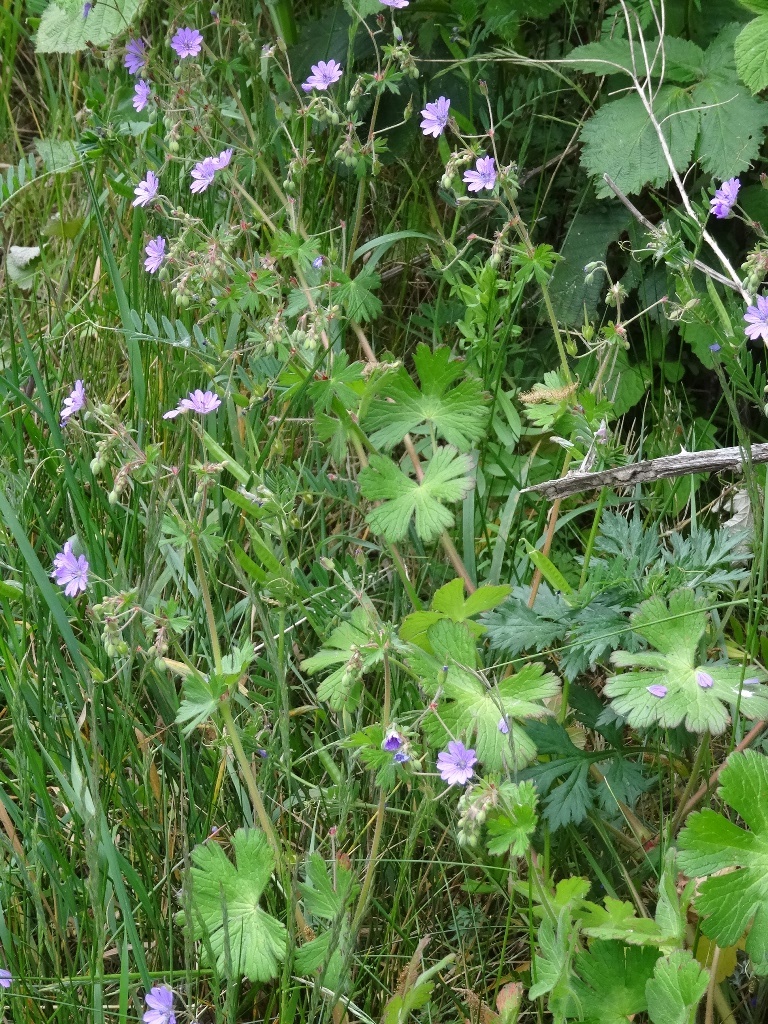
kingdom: Plantae
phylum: Tracheophyta
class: Magnoliopsida
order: Geraniales
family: Geraniaceae
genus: Geranium
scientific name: Geranium pyrenaicum
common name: Hedgerow crane's-bill
